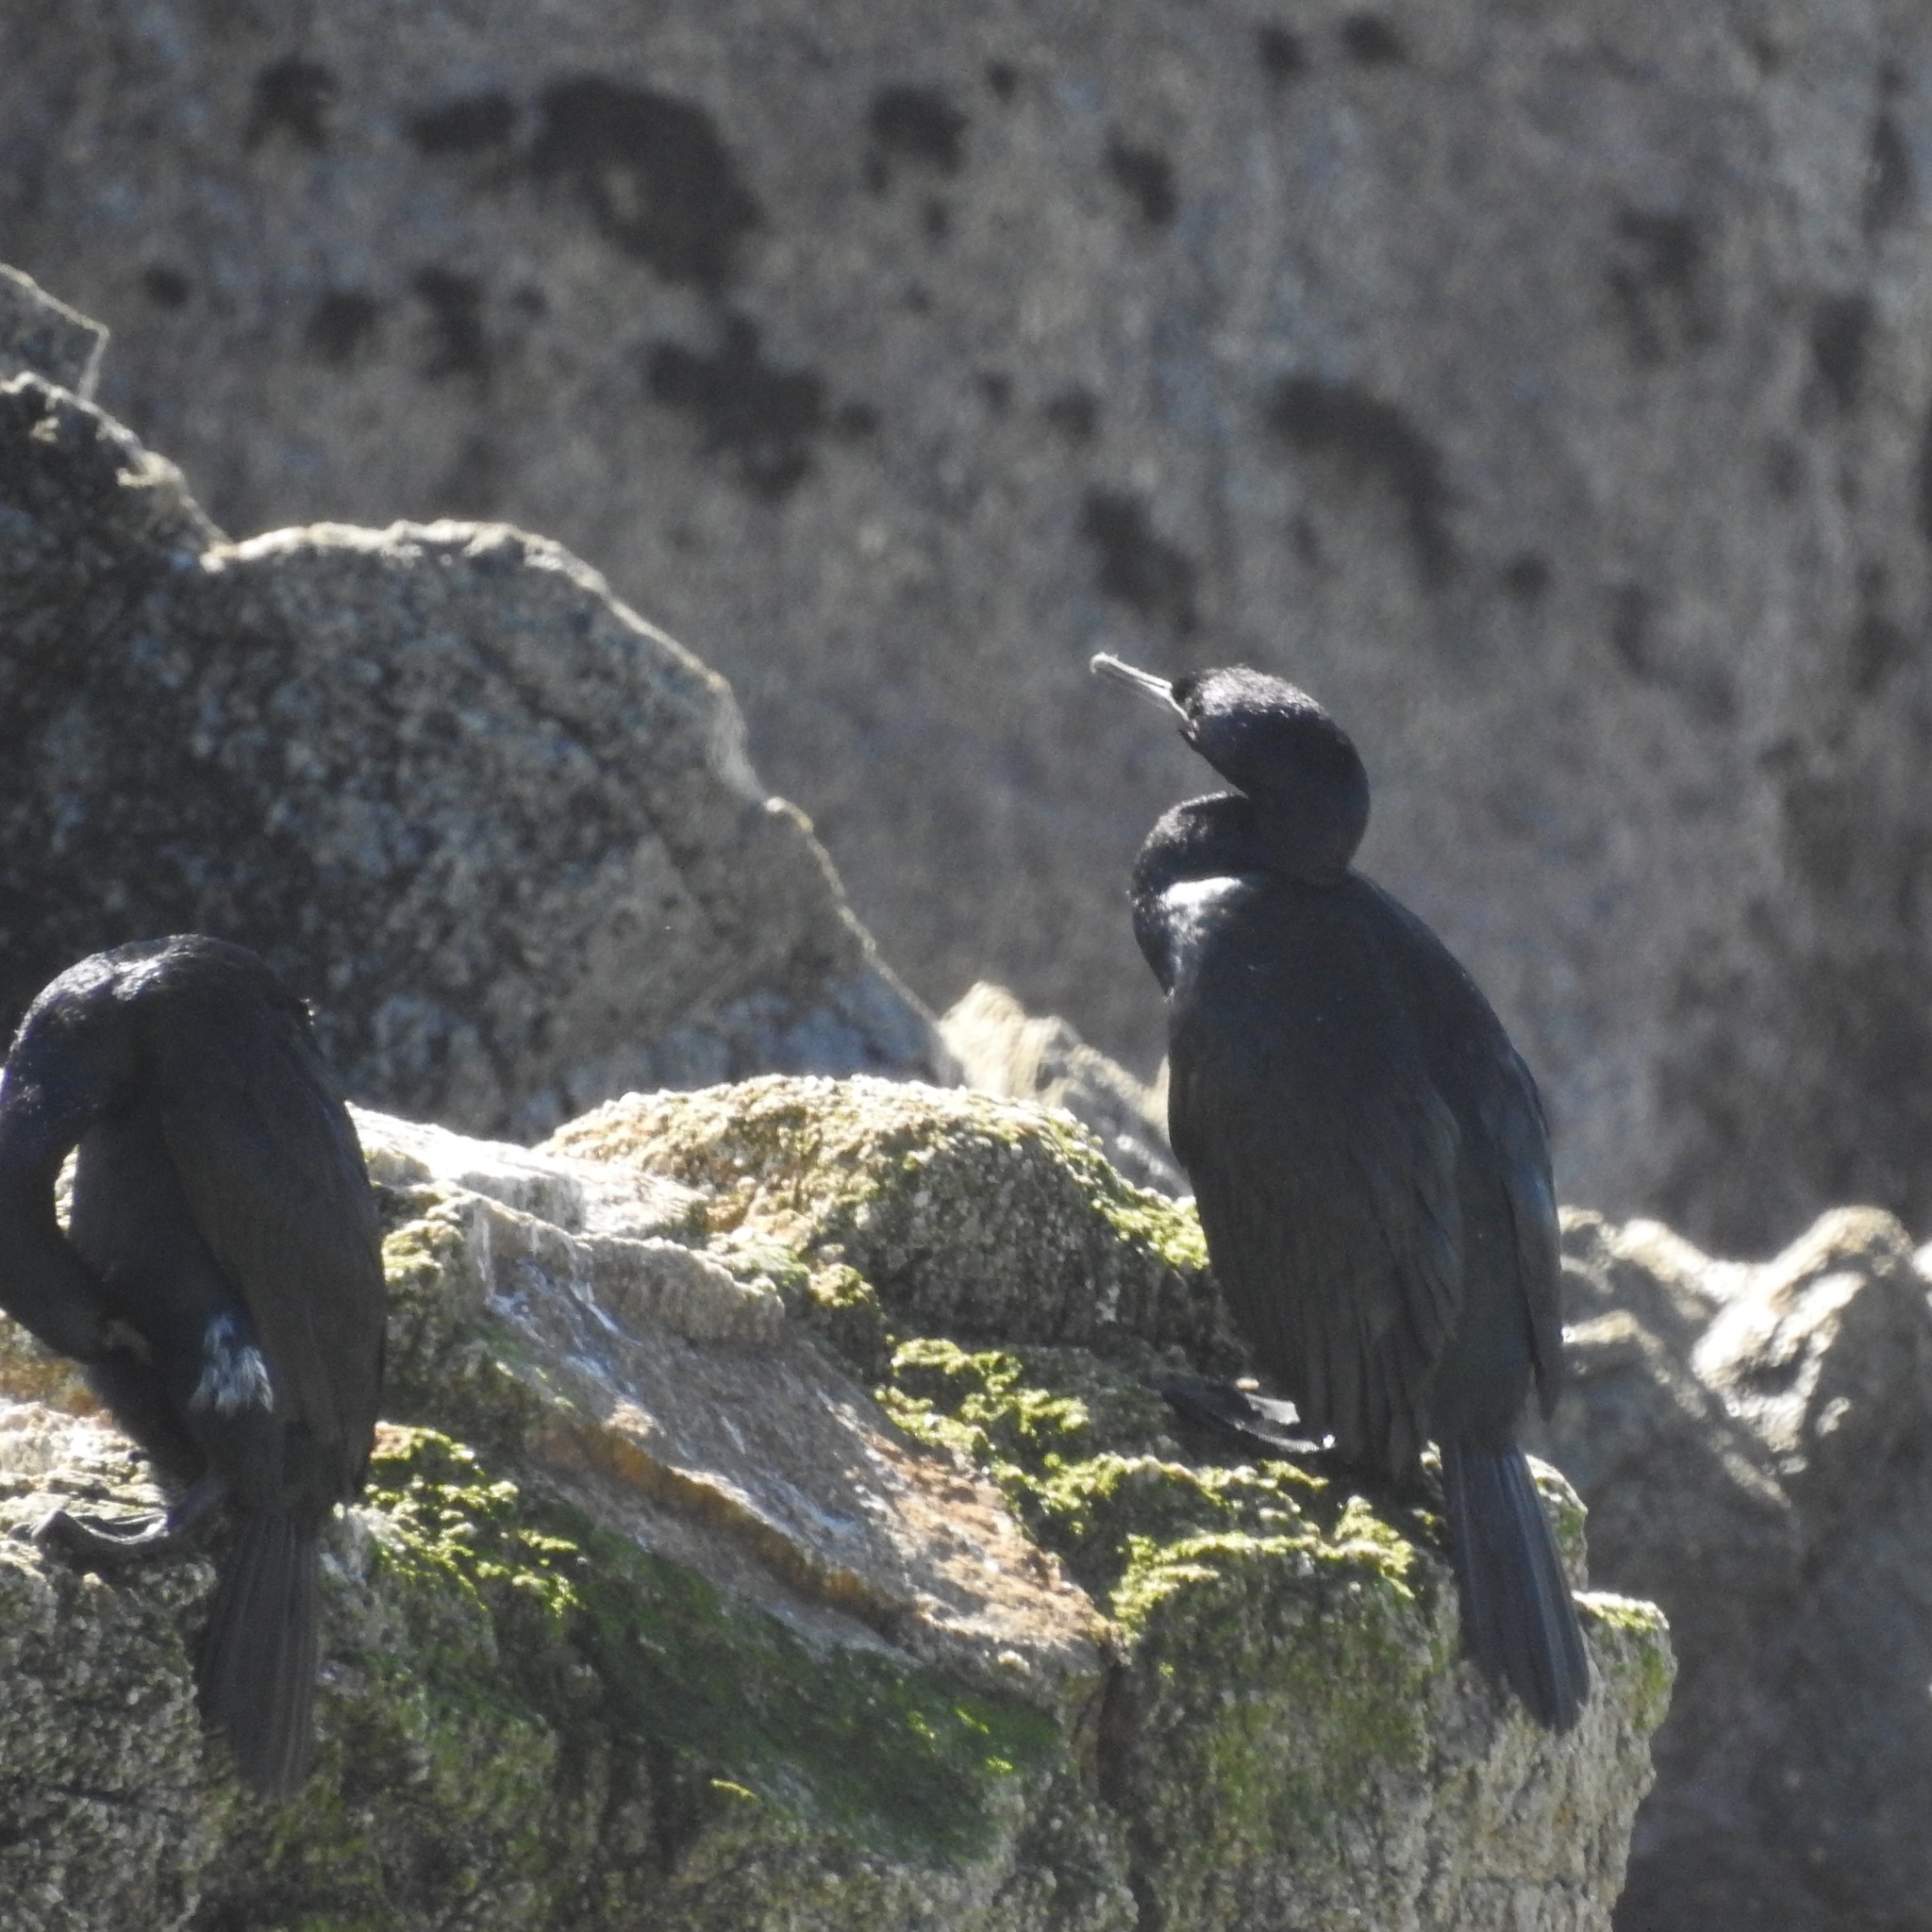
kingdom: Animalia
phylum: Chordata
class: Aves
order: Suliformes
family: Phalacrocoracidae
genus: Phalacrocorax
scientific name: Phalacrocorax pelagicus
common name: Pelagic cormorant
